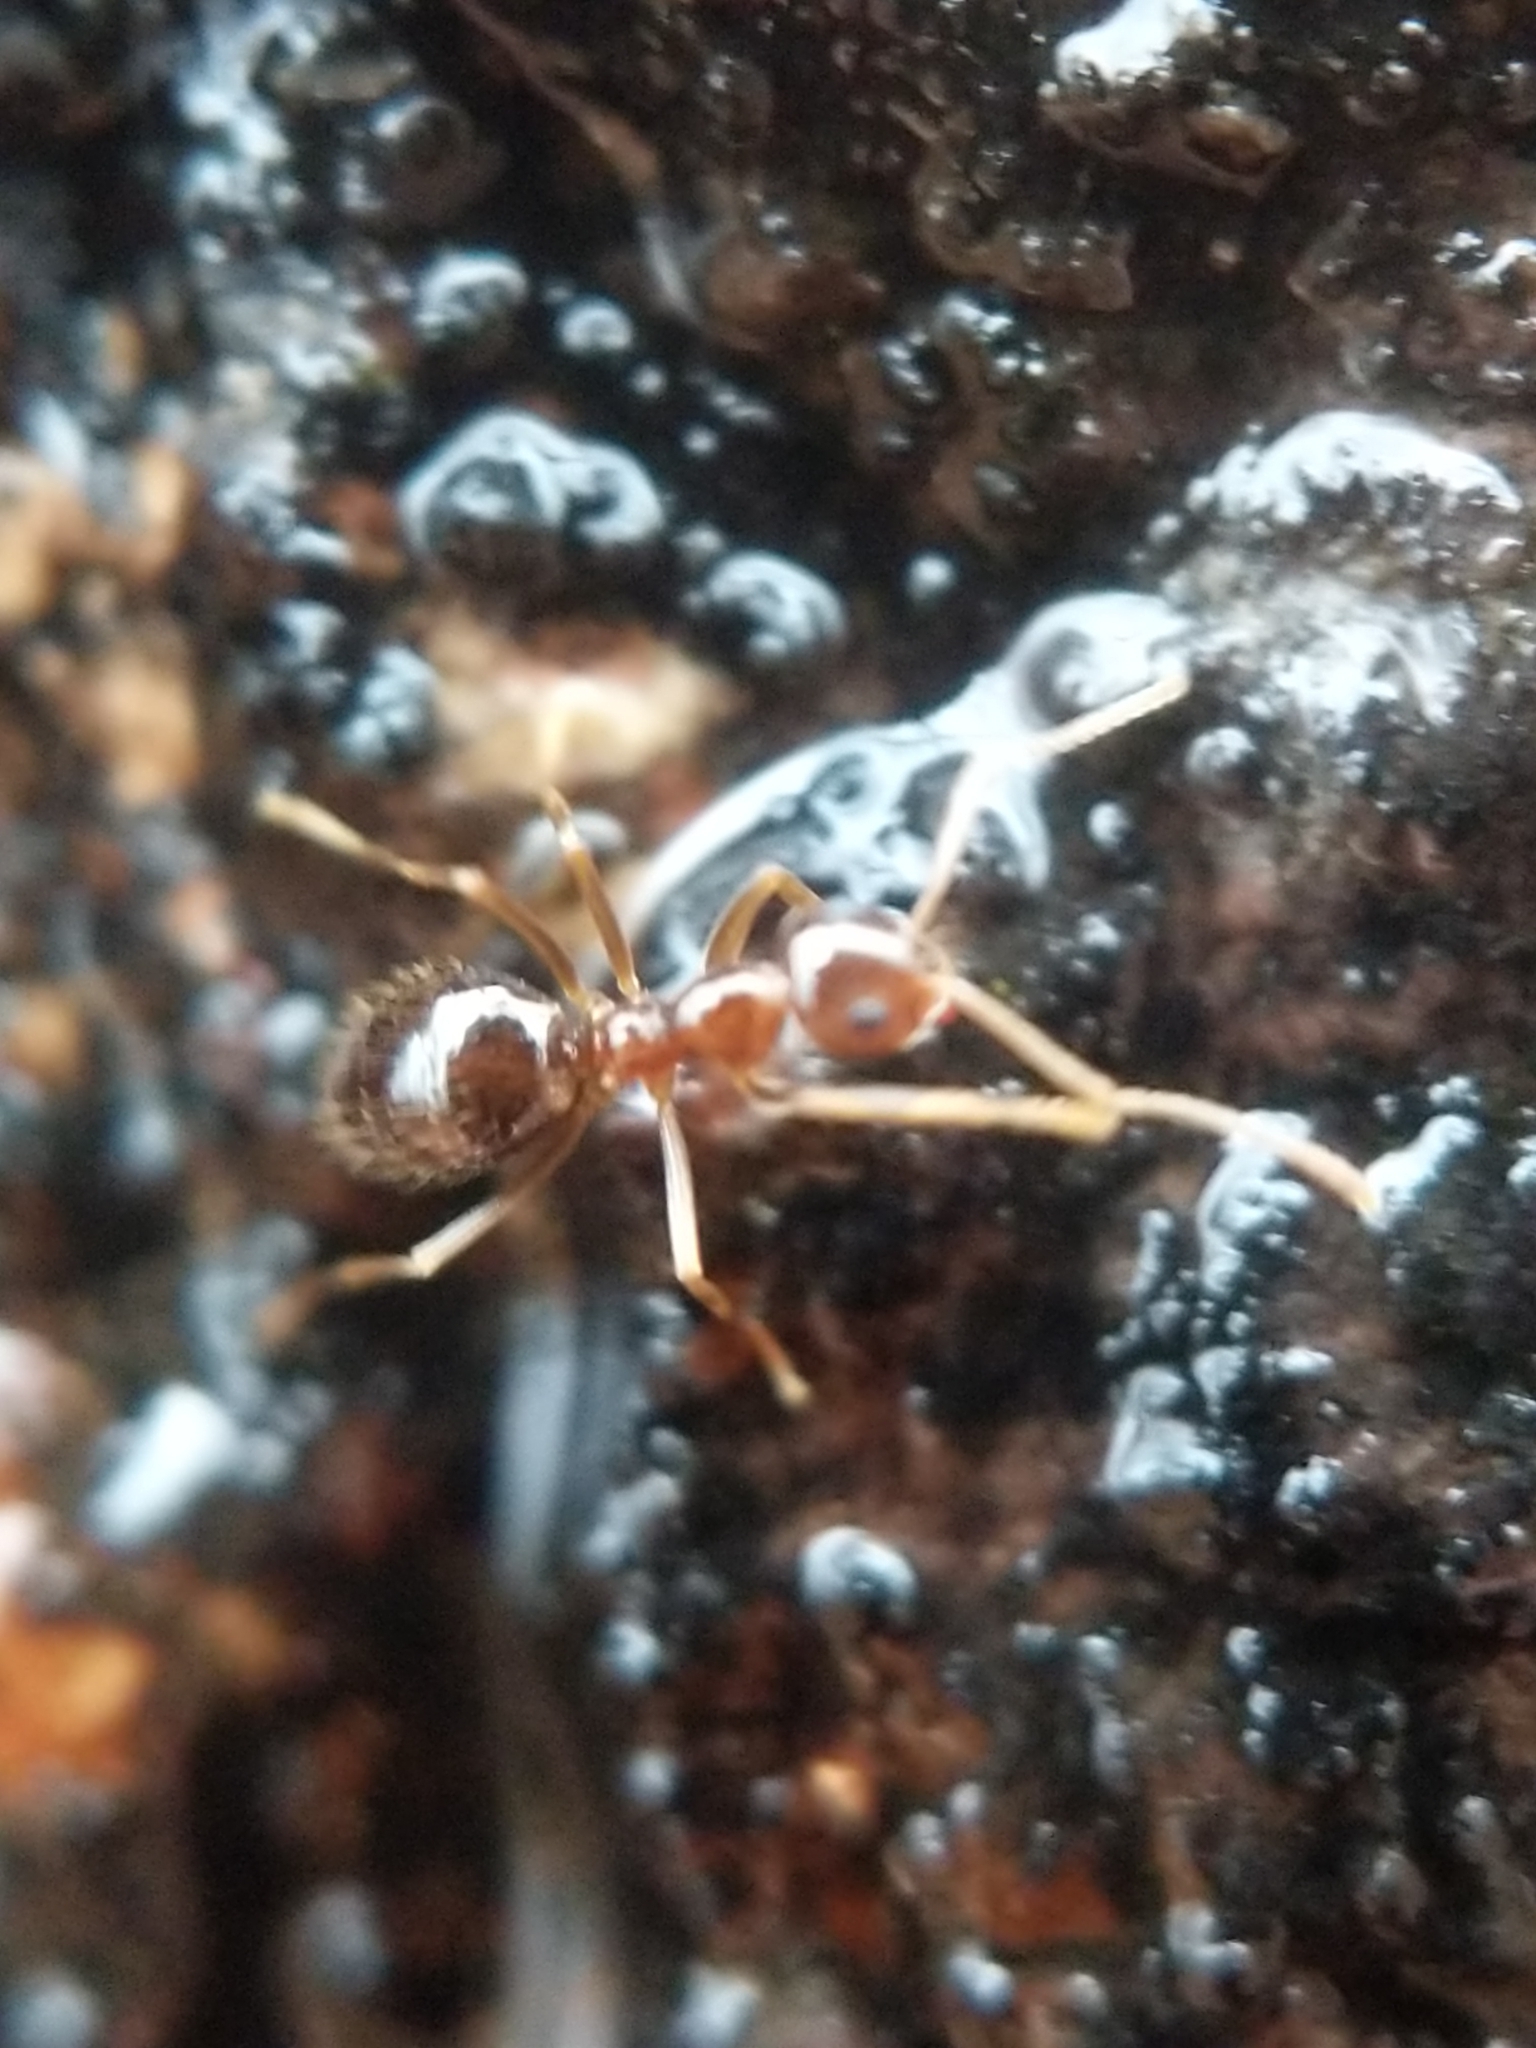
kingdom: Animalia
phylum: Arthropoda
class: Insecta
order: Hymenoptera
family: Formicidae
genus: Prenolepis
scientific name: Prenolepis imparis
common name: Small honey ant
